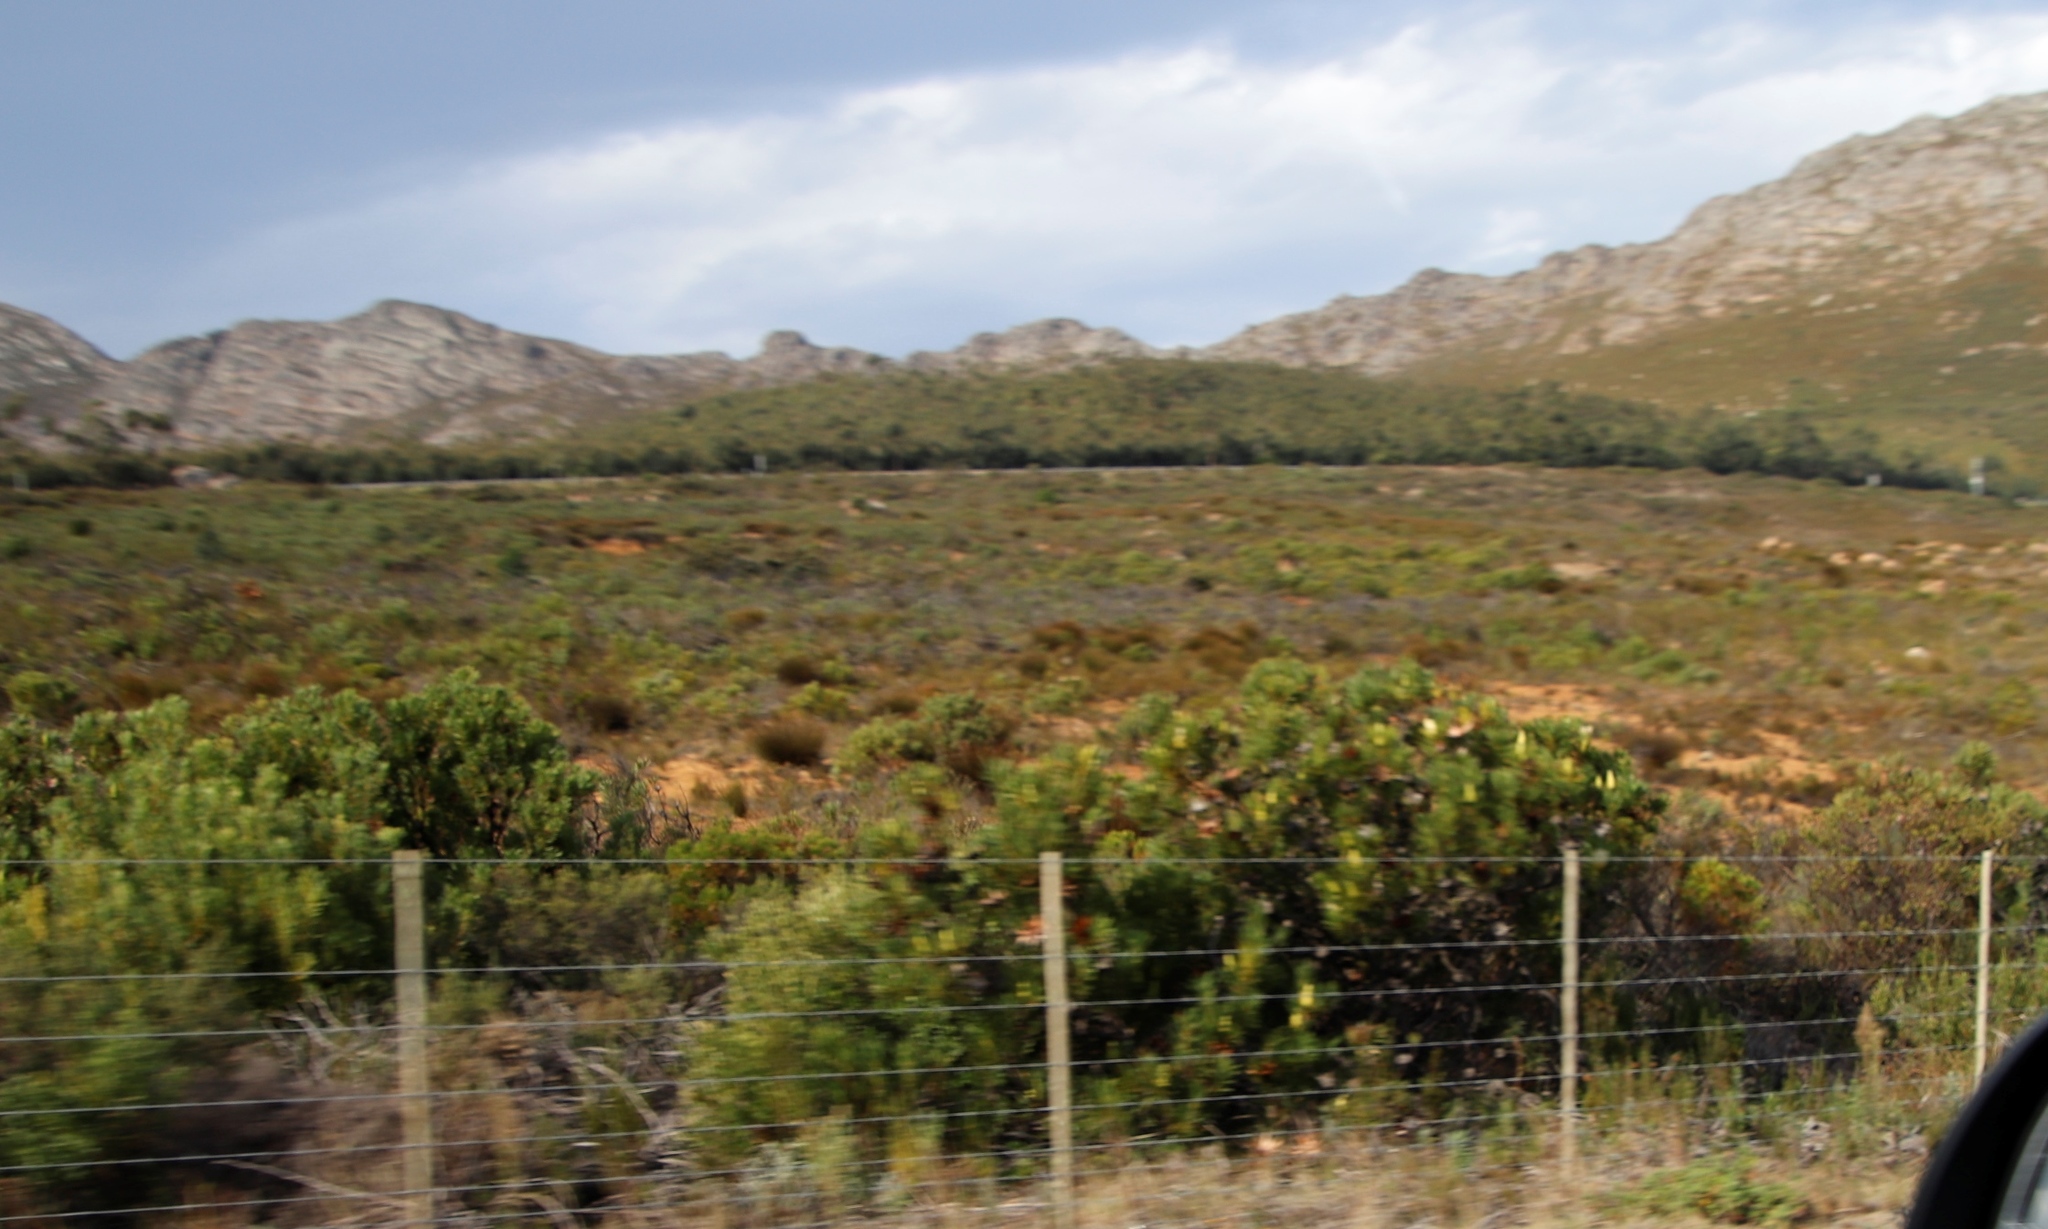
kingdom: Plantae
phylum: Tracheophyta
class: Magnoliopsida
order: Proteales
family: Proteaceae
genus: Protea
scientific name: Protea repens
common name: Sugarbush
